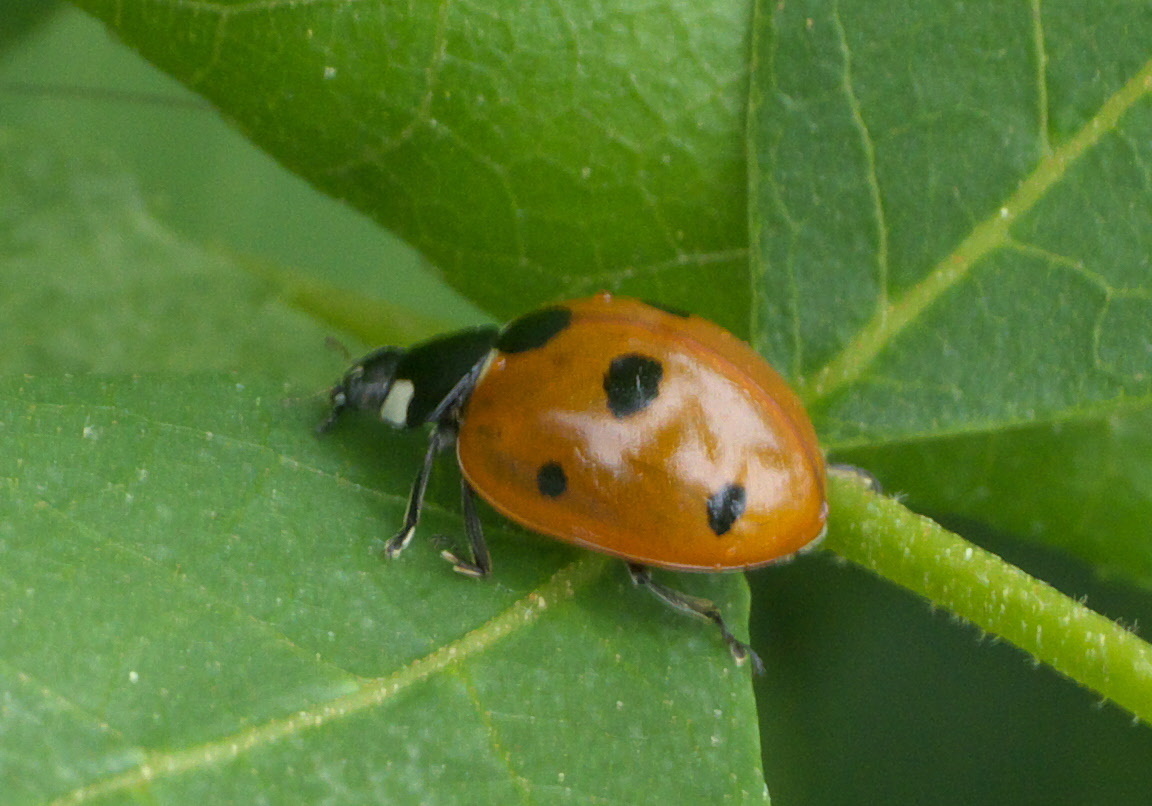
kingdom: Animalia
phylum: Arthropoda
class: Insecta
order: Coleoptera
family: Coccinellidae
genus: Coccinella
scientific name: Coccinella septempunctata
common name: Sevenspotted lady beetle
